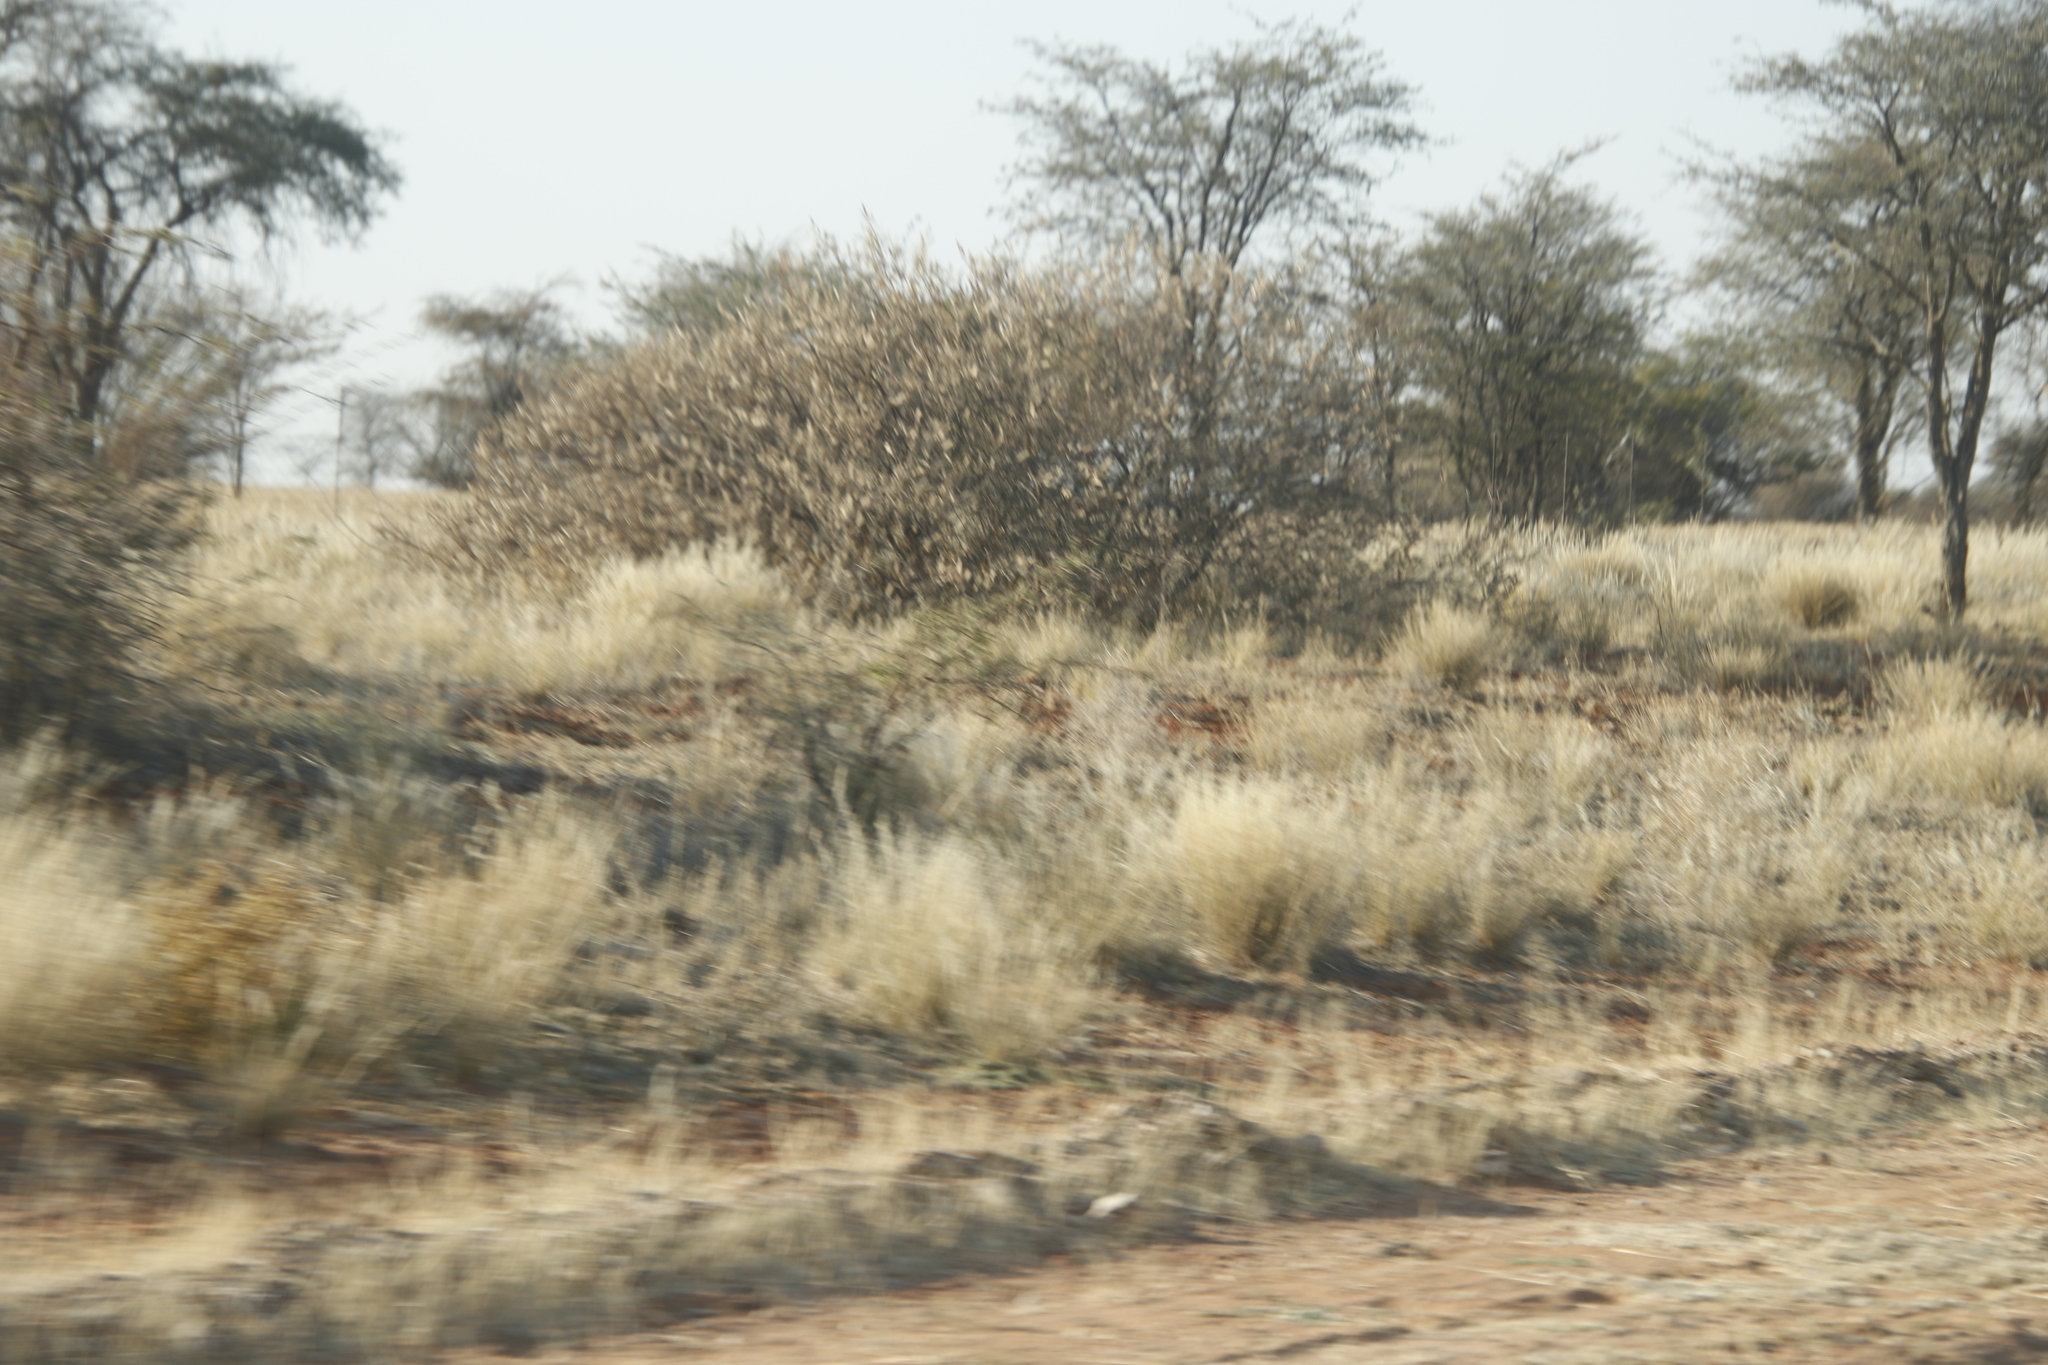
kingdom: Plantae
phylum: Tracheophyta
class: Magnoliopsida
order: Fabales
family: Fabaceae
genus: Vachellia
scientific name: Vachellia hebeclada
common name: Candle thorn
